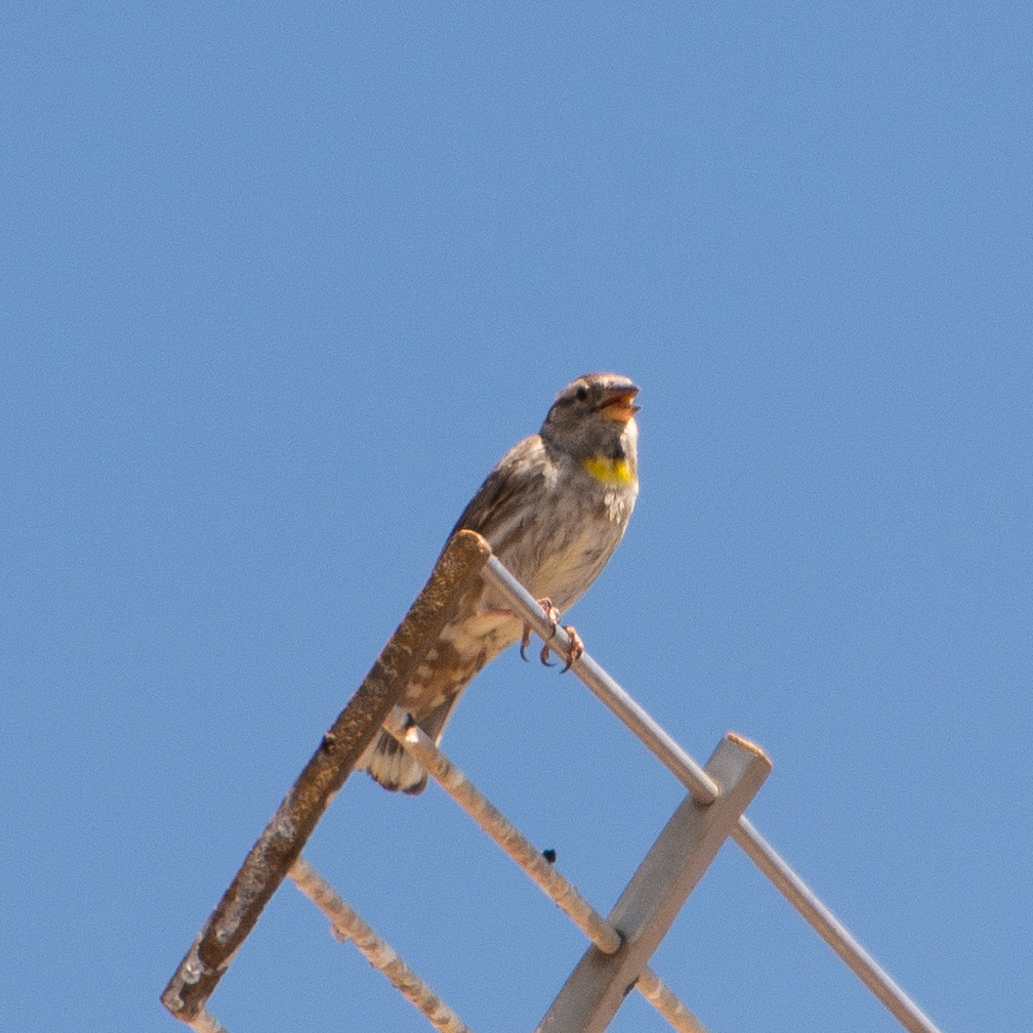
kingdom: Animalia
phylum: Chordata
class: Aves
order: Passeriformes
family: Passeridae
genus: Petronia
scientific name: Petronia petronia
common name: Rock sparrow
